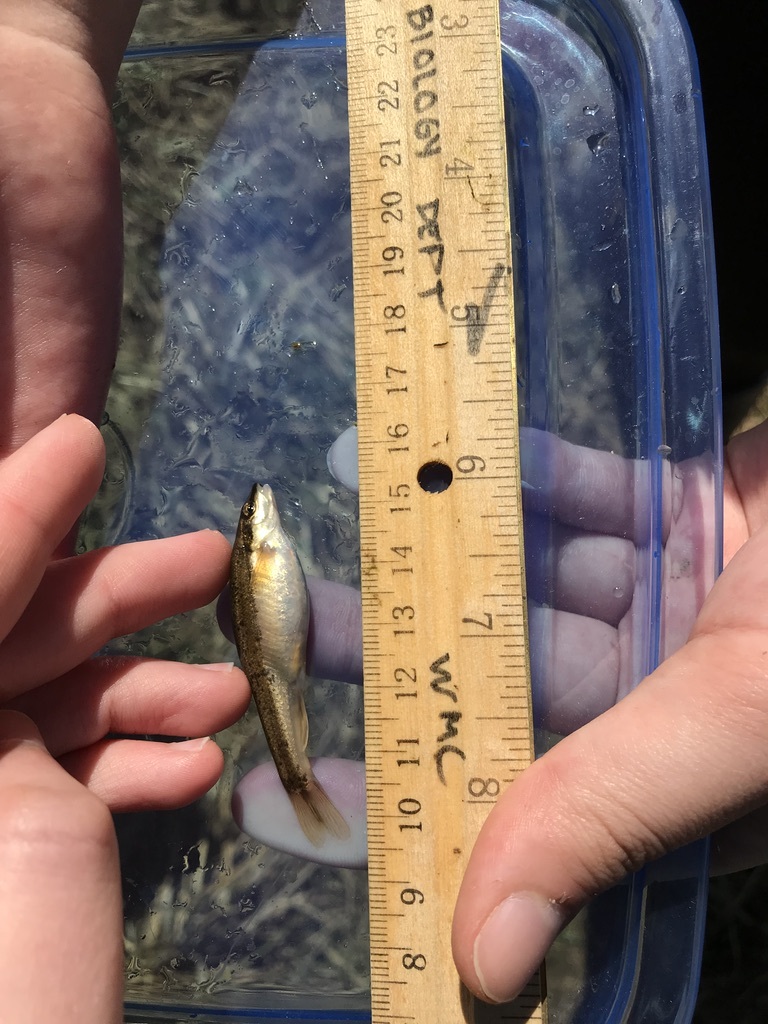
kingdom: Animalia
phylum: Chordata
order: Cypriniformes
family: Cyprinidae
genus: Rhinichthys
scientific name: Rhinichthys atratulus
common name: Eastern blacknose dace
